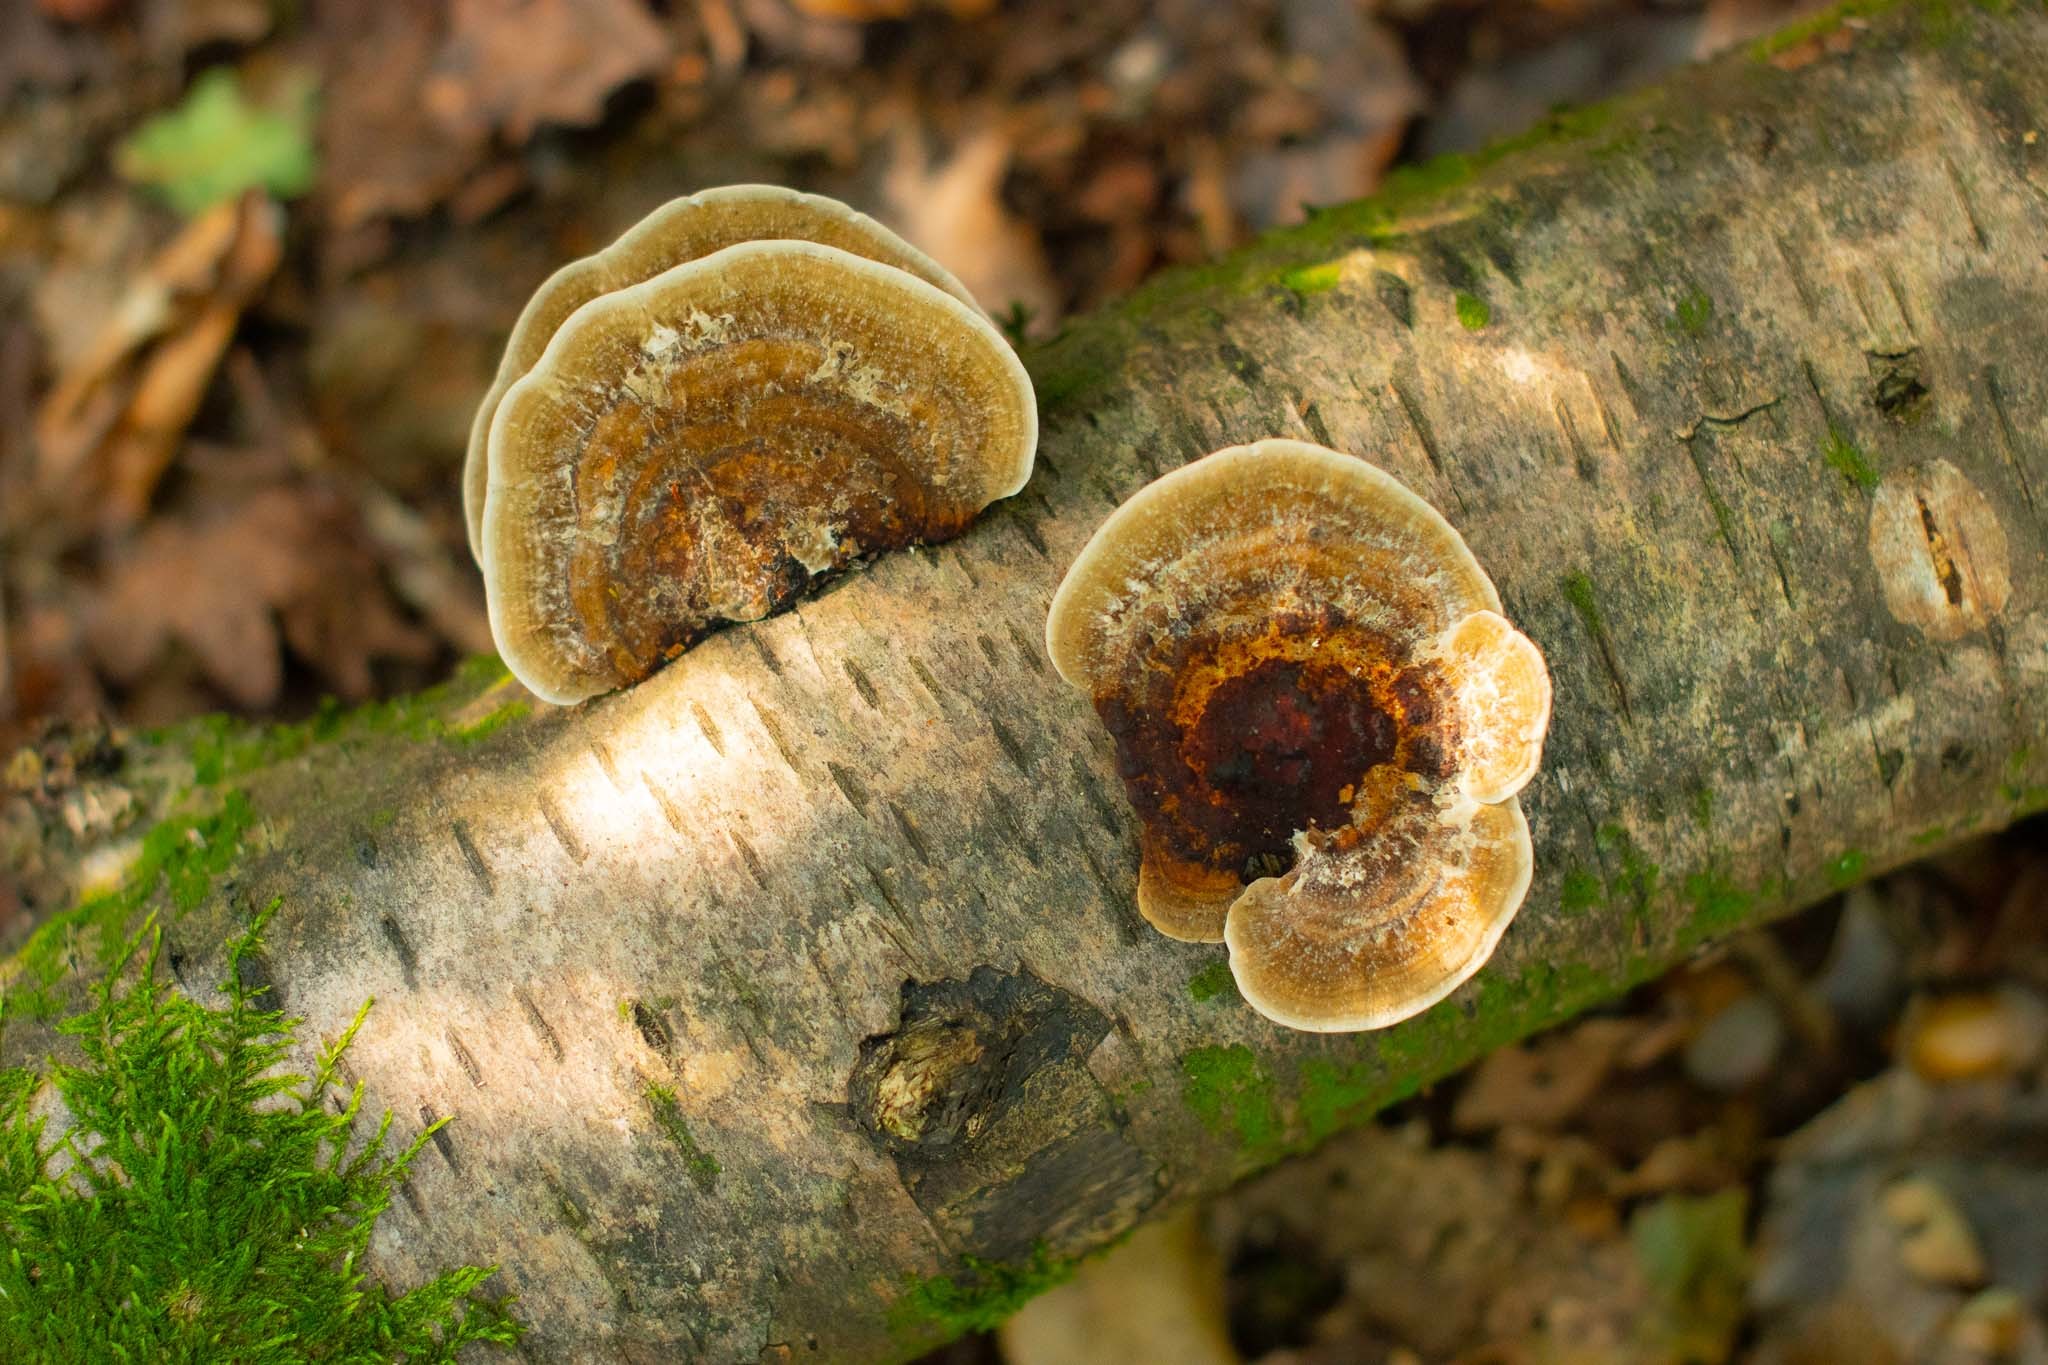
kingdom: Fungi
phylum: Basidiomycota
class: Agaricomycetes
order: Polyporales
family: Polyporaceae
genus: Daedaleopsis
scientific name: Daedaleopsis confragosa
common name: Blushing bracket
